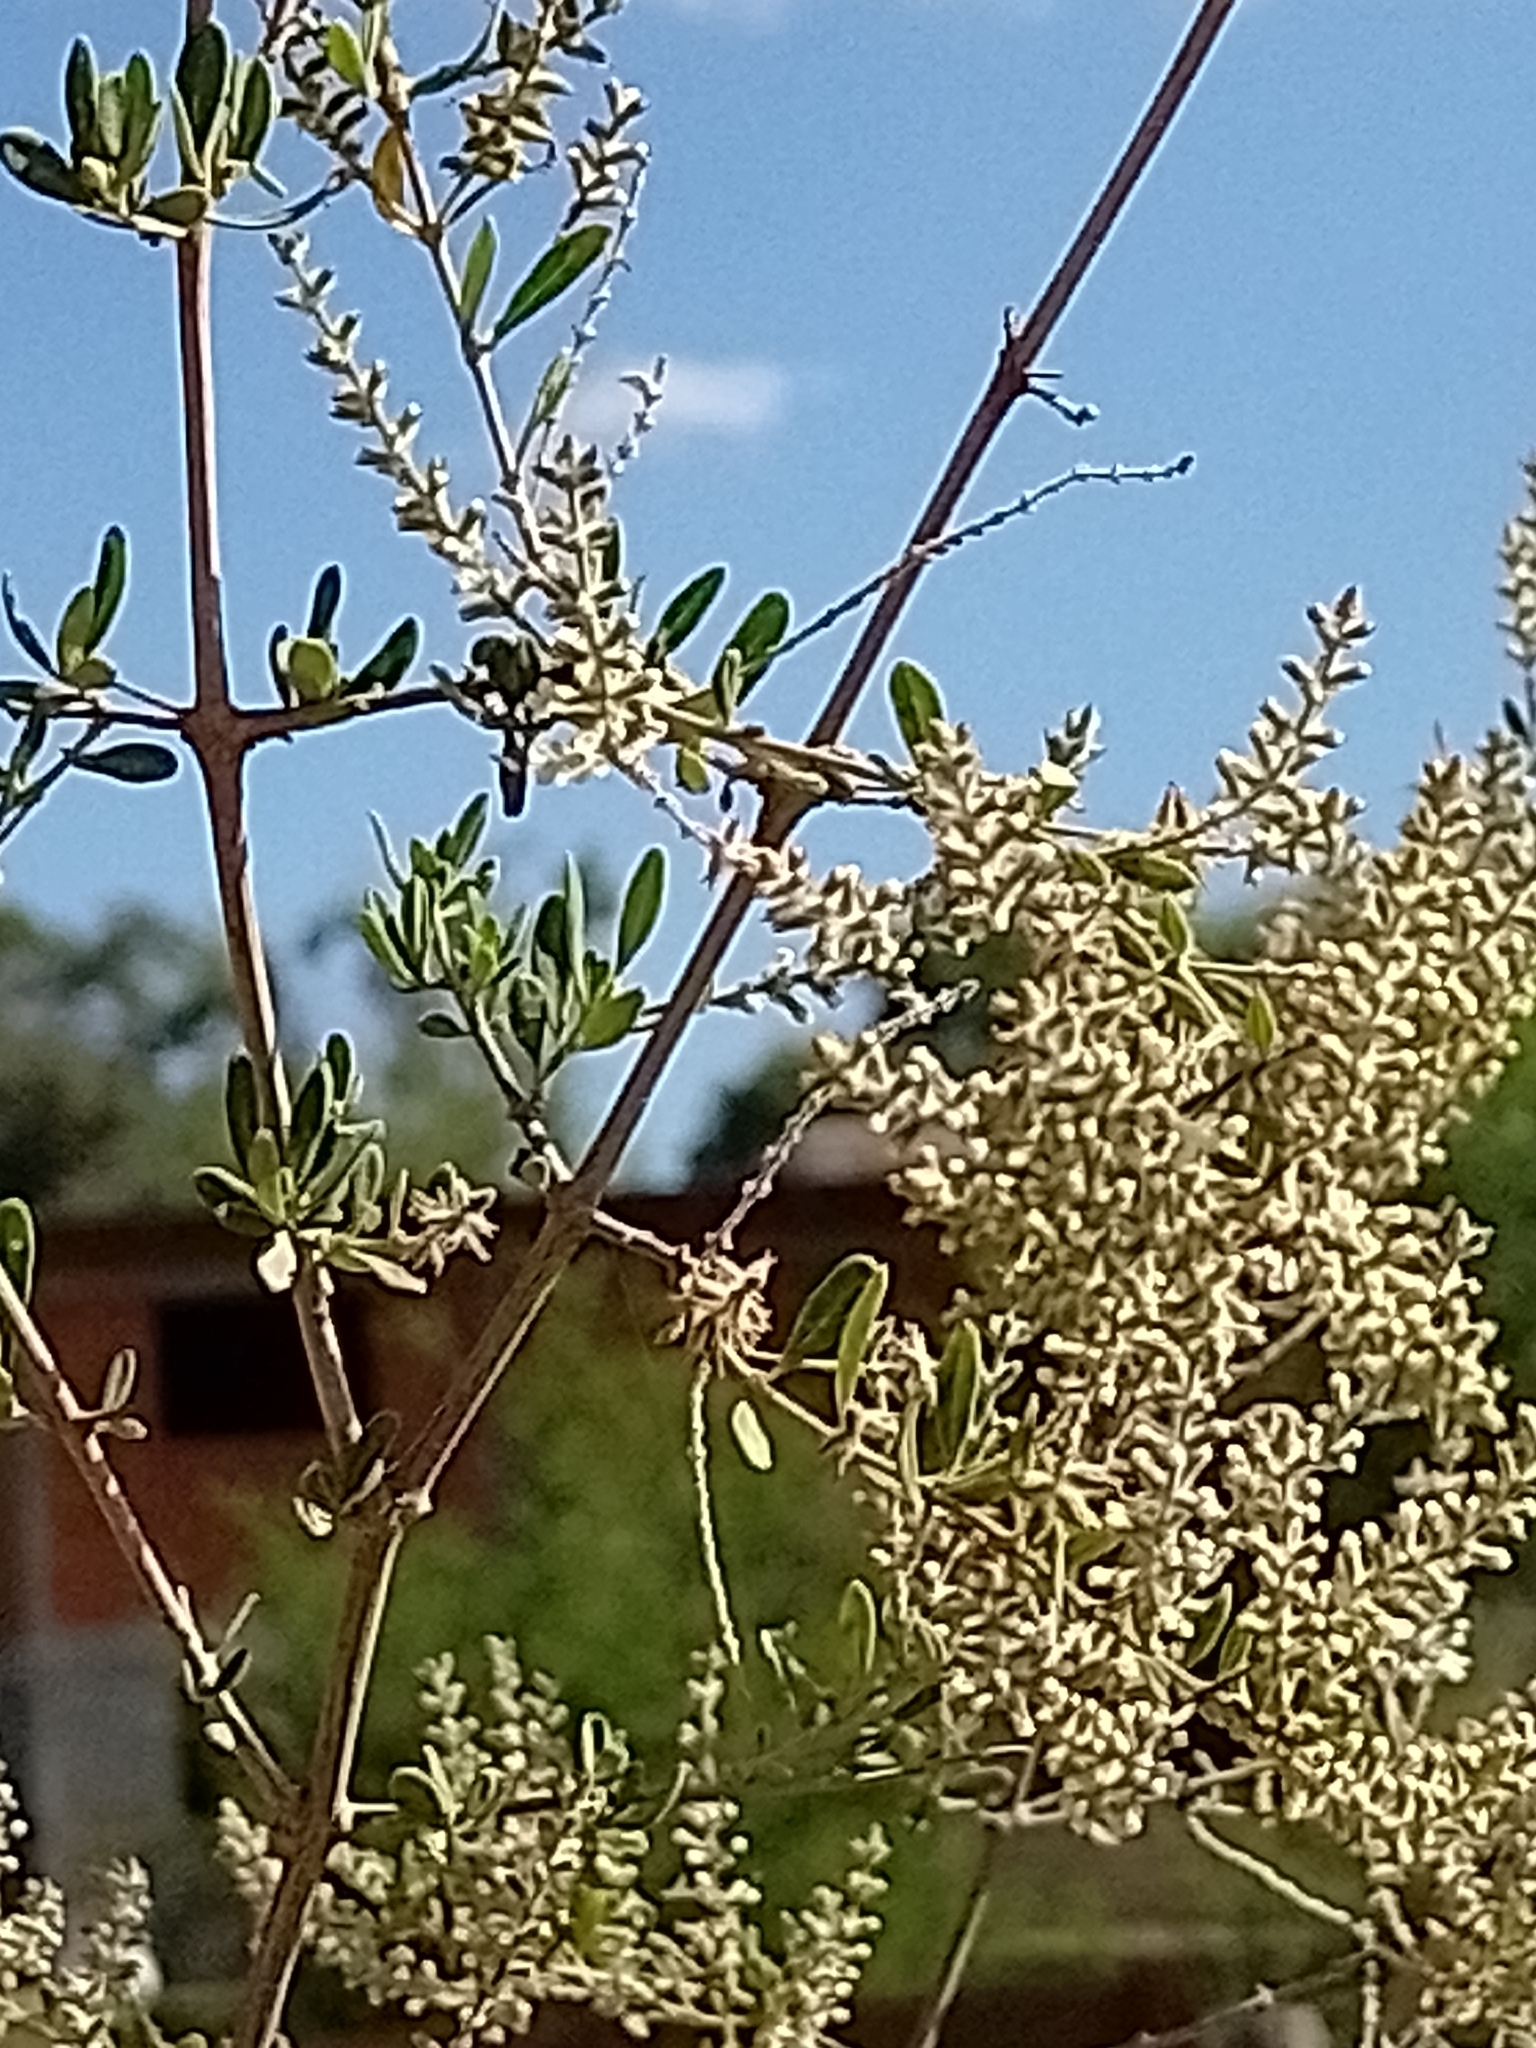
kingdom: Plantae
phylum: Tracheophyta
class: Magnoliopsida
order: Lamiales
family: Verbenaceae
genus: Aloysia
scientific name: Aloysia gratissima
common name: Common bee-brush
